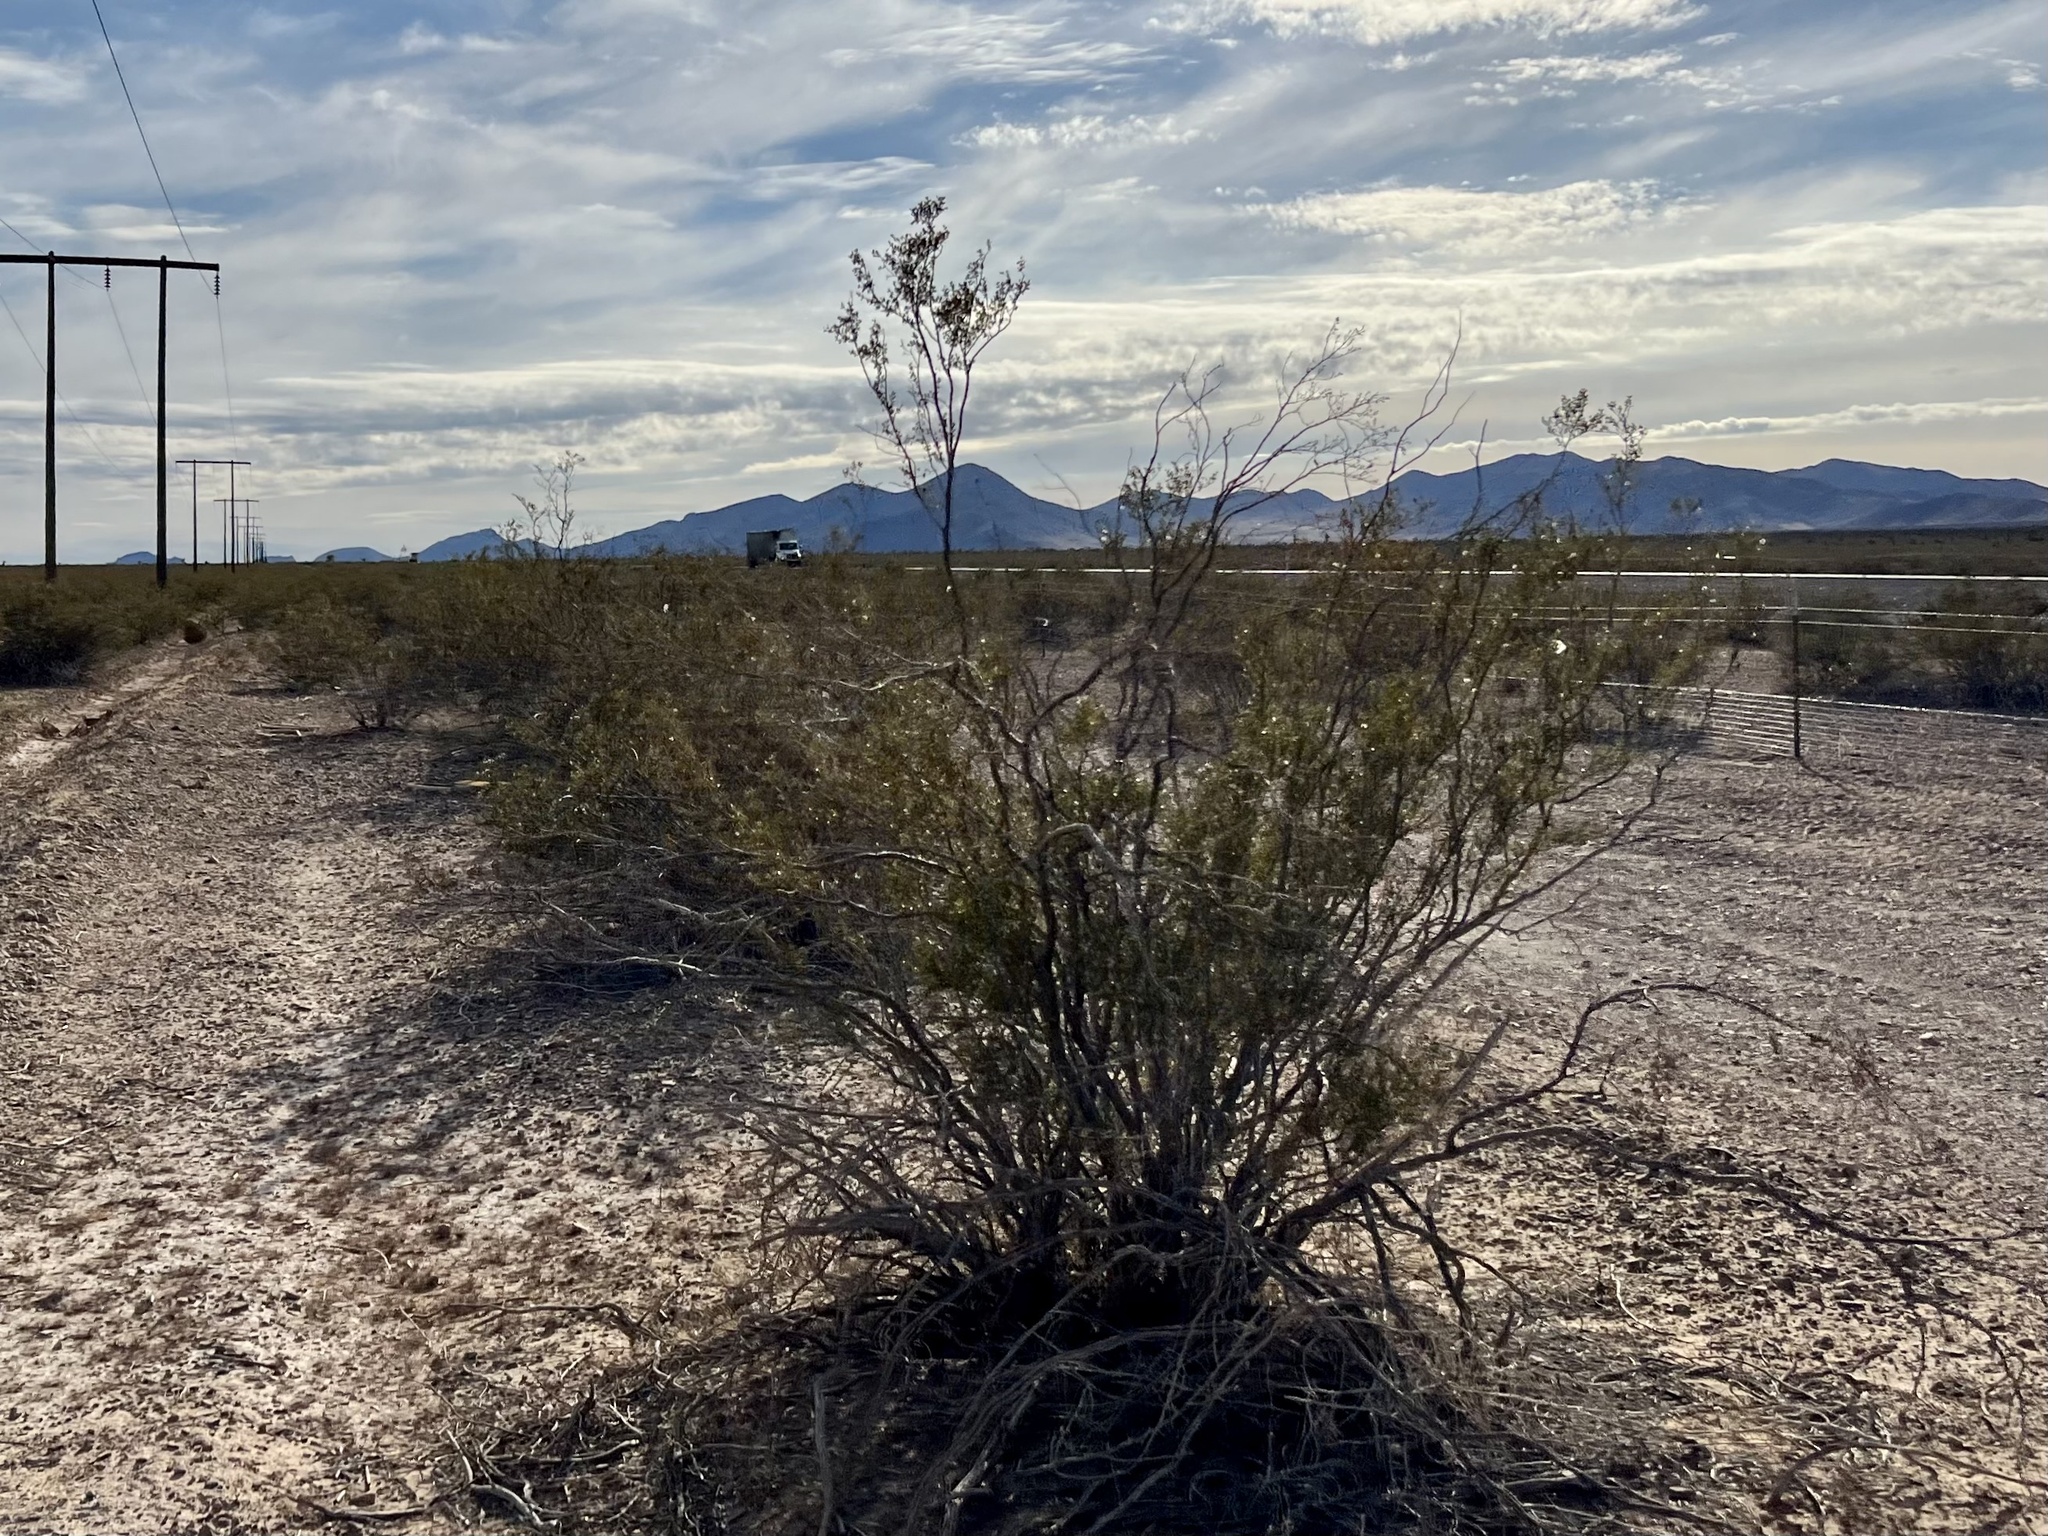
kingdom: Plantae
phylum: Tracheophyta
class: Magnoliopsida
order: Zygophyllales
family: Zygophyllaceae
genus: Larrea
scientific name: Larrea tridentata
